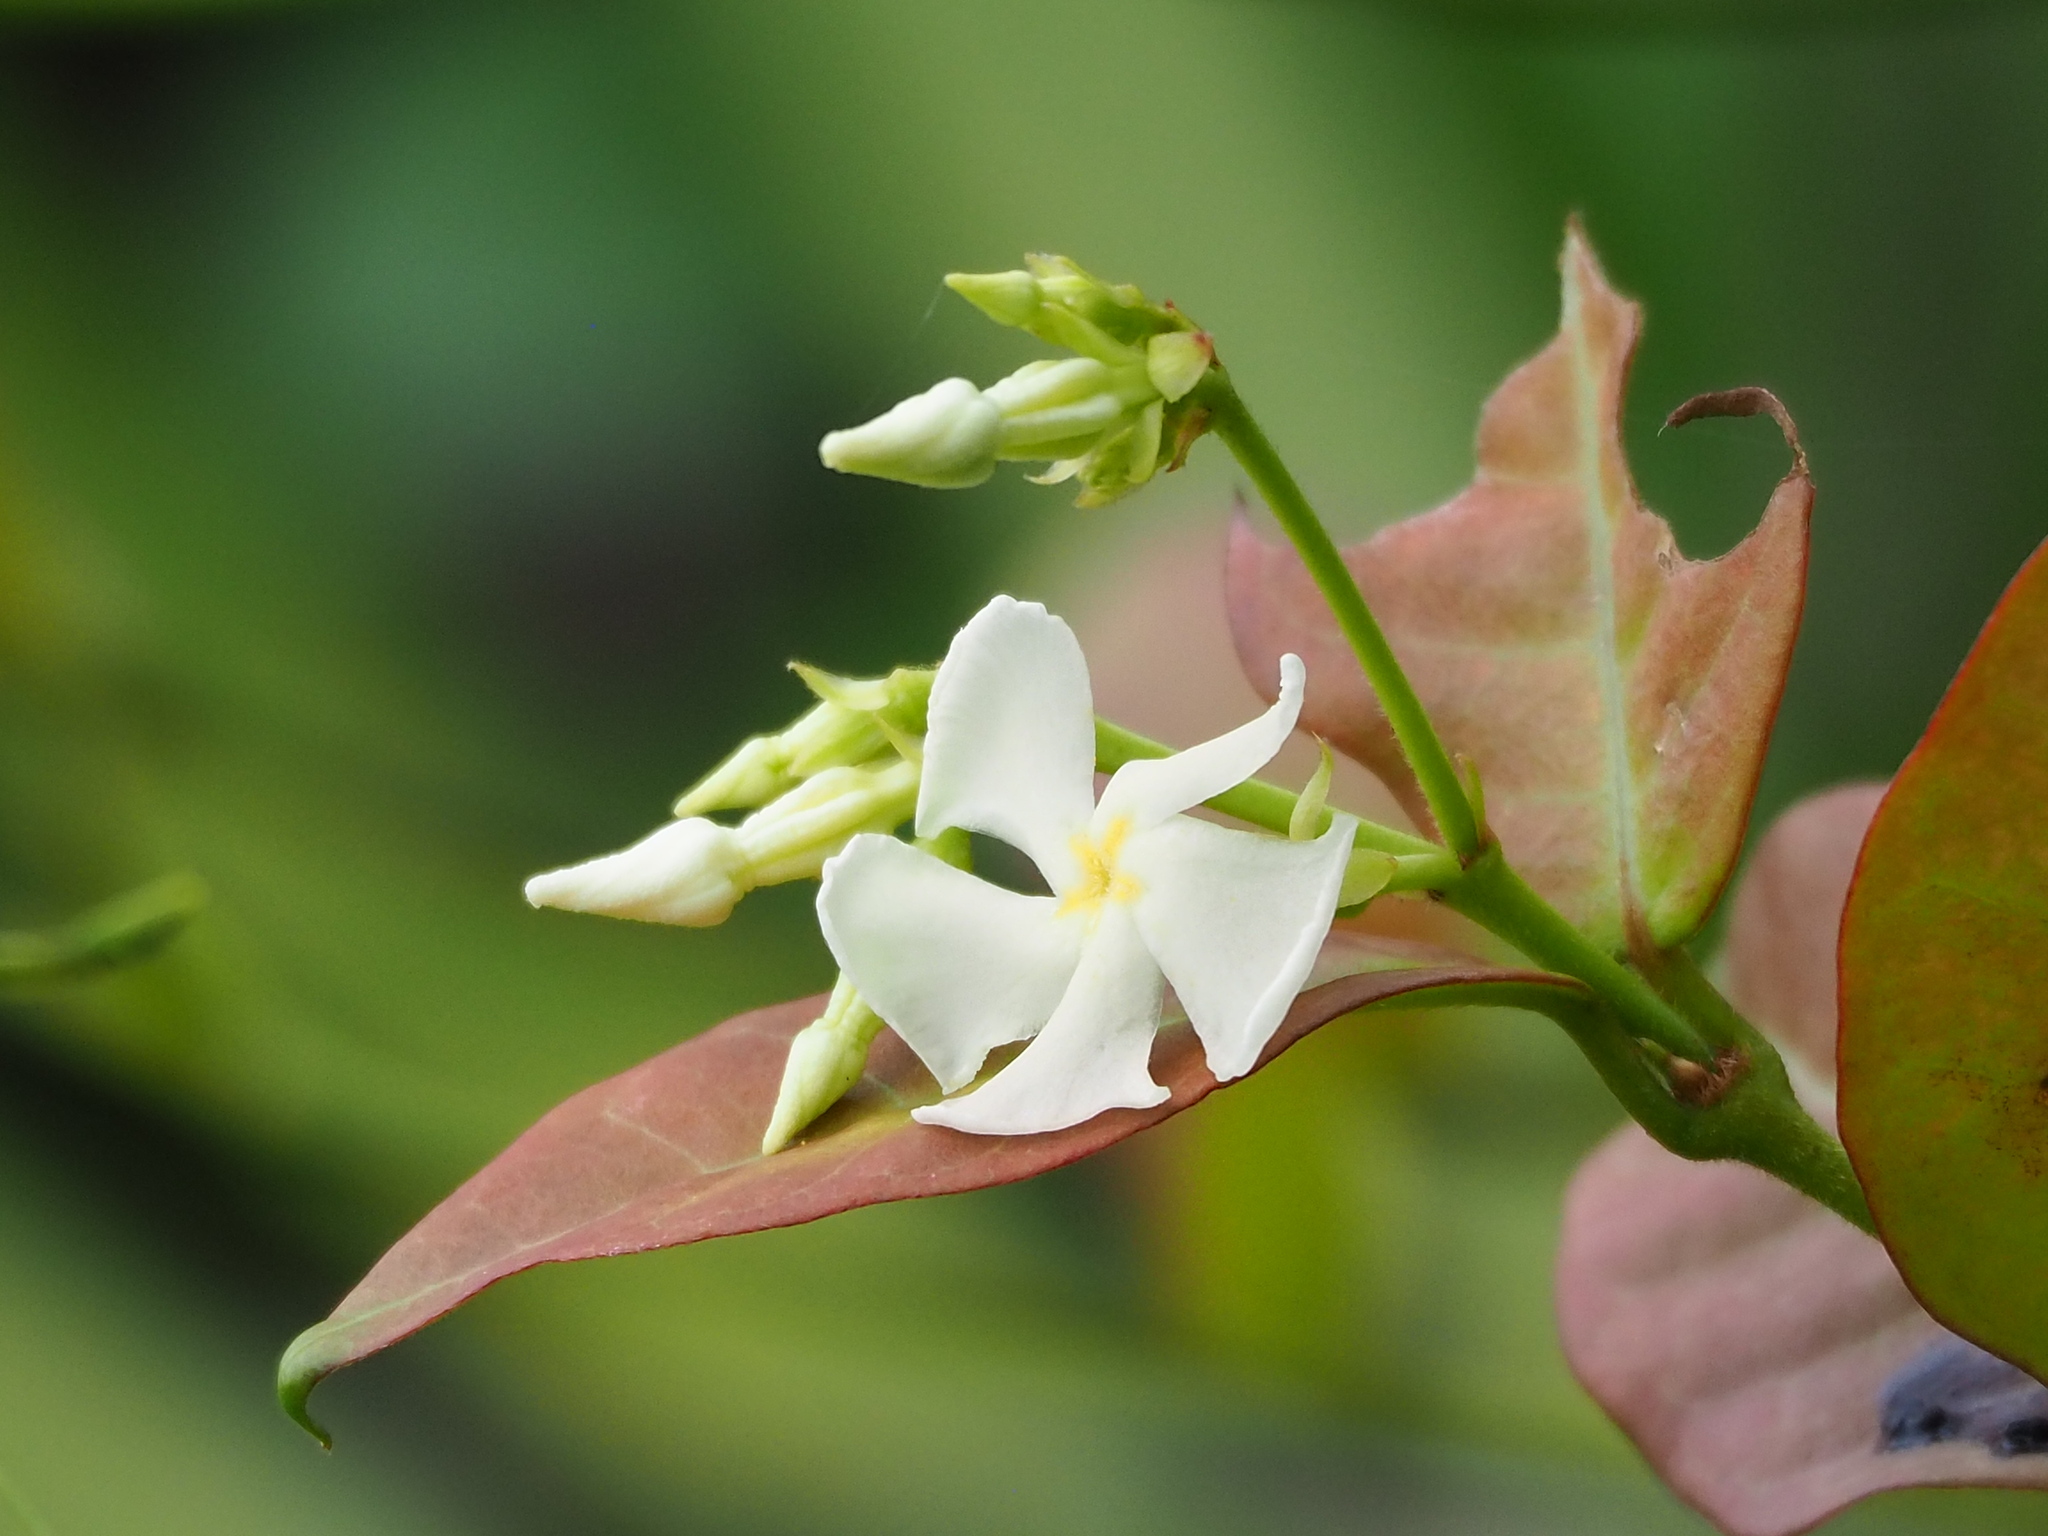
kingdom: Plantae
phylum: Tracheophyta
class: Magnoliopsida
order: Gentianales
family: Apocynaceae
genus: Trachelospermum
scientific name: Trachelospermum jasminoides
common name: Confederate jasmine
